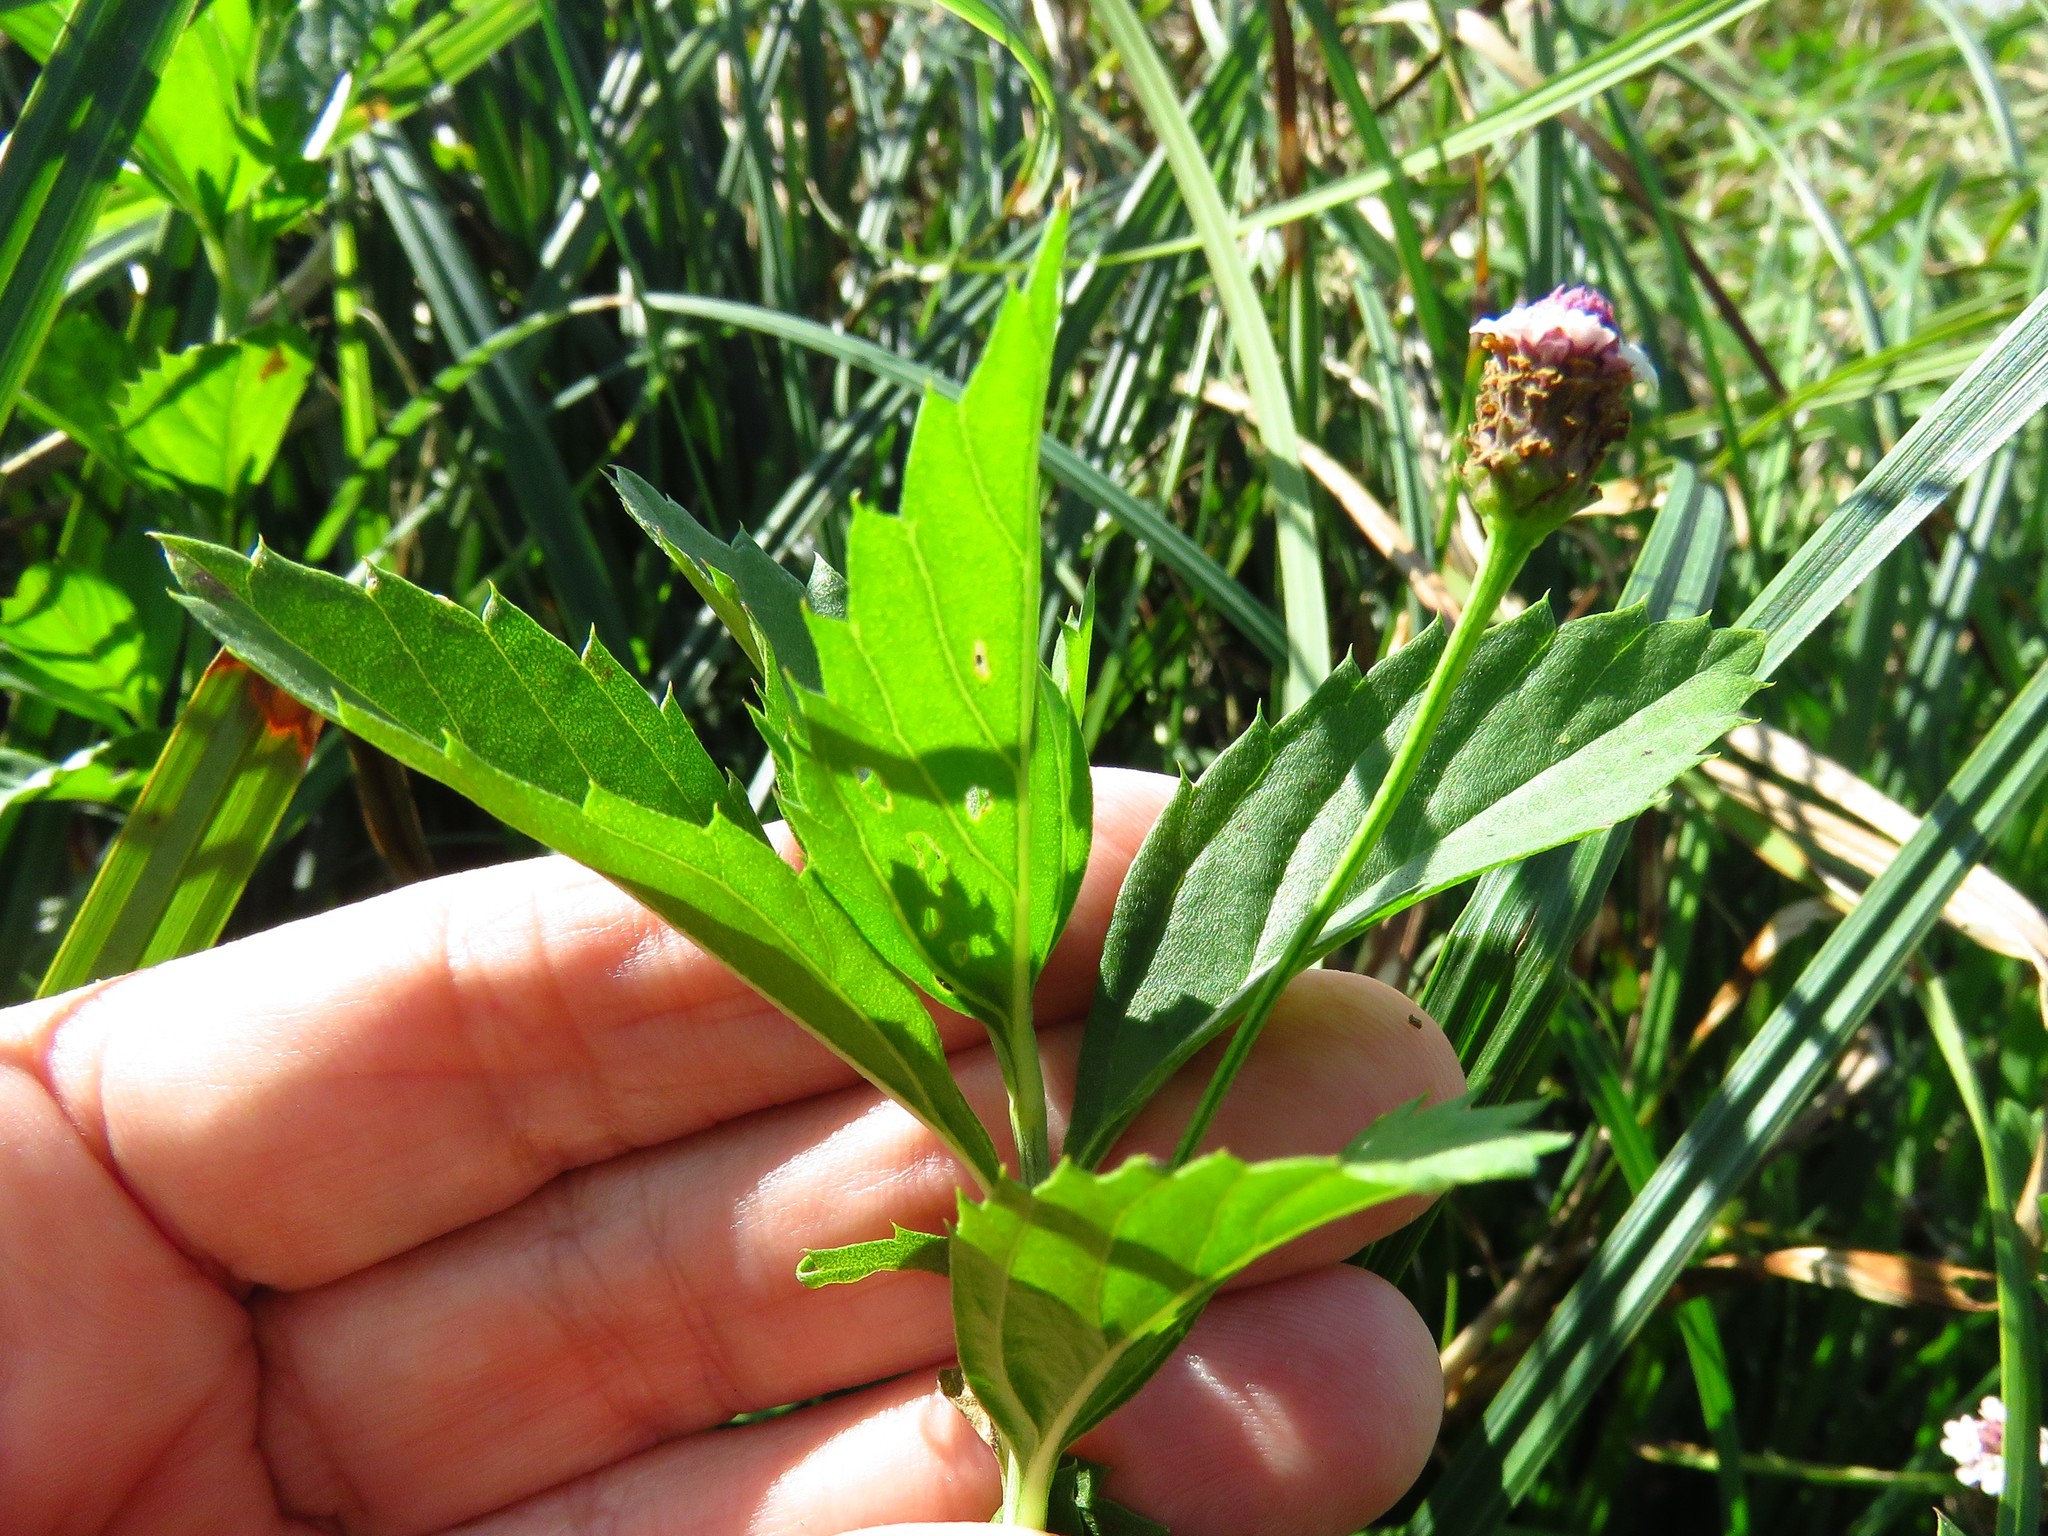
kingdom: Plantae
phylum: Tracheophyta
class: Magnoliopsida
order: Lamiales
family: Verbenaceae
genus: Phyla
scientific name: Phyla lanceolata
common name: Northern fogfruit
